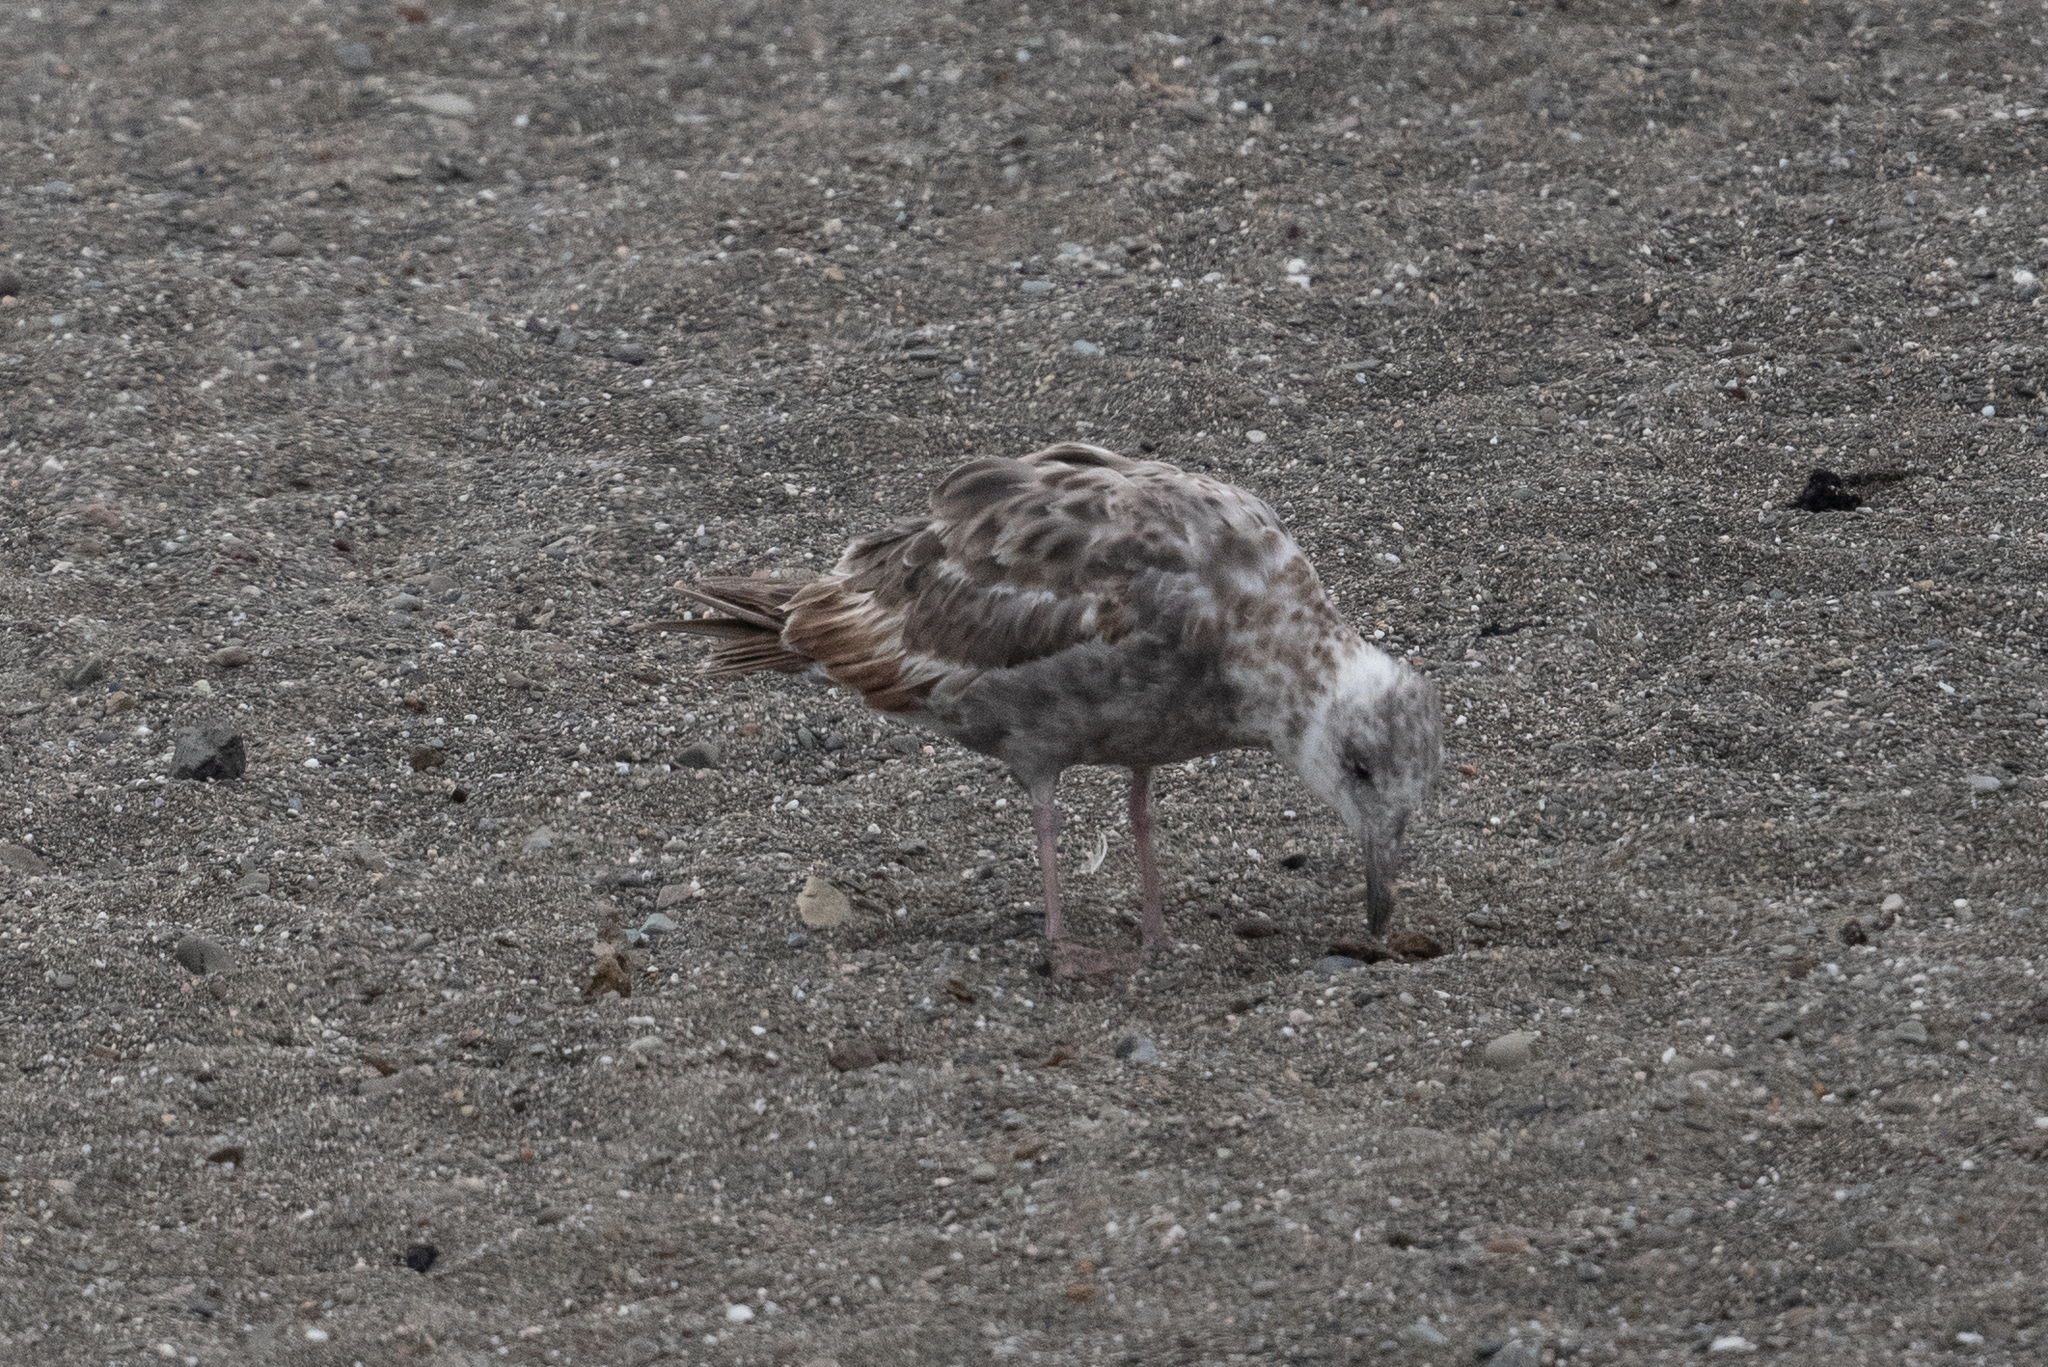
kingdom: Animalia
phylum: Chordata
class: Aves
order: Charadriiformes
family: Laridae
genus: Larus
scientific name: Larus occidentalis
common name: Western gull
